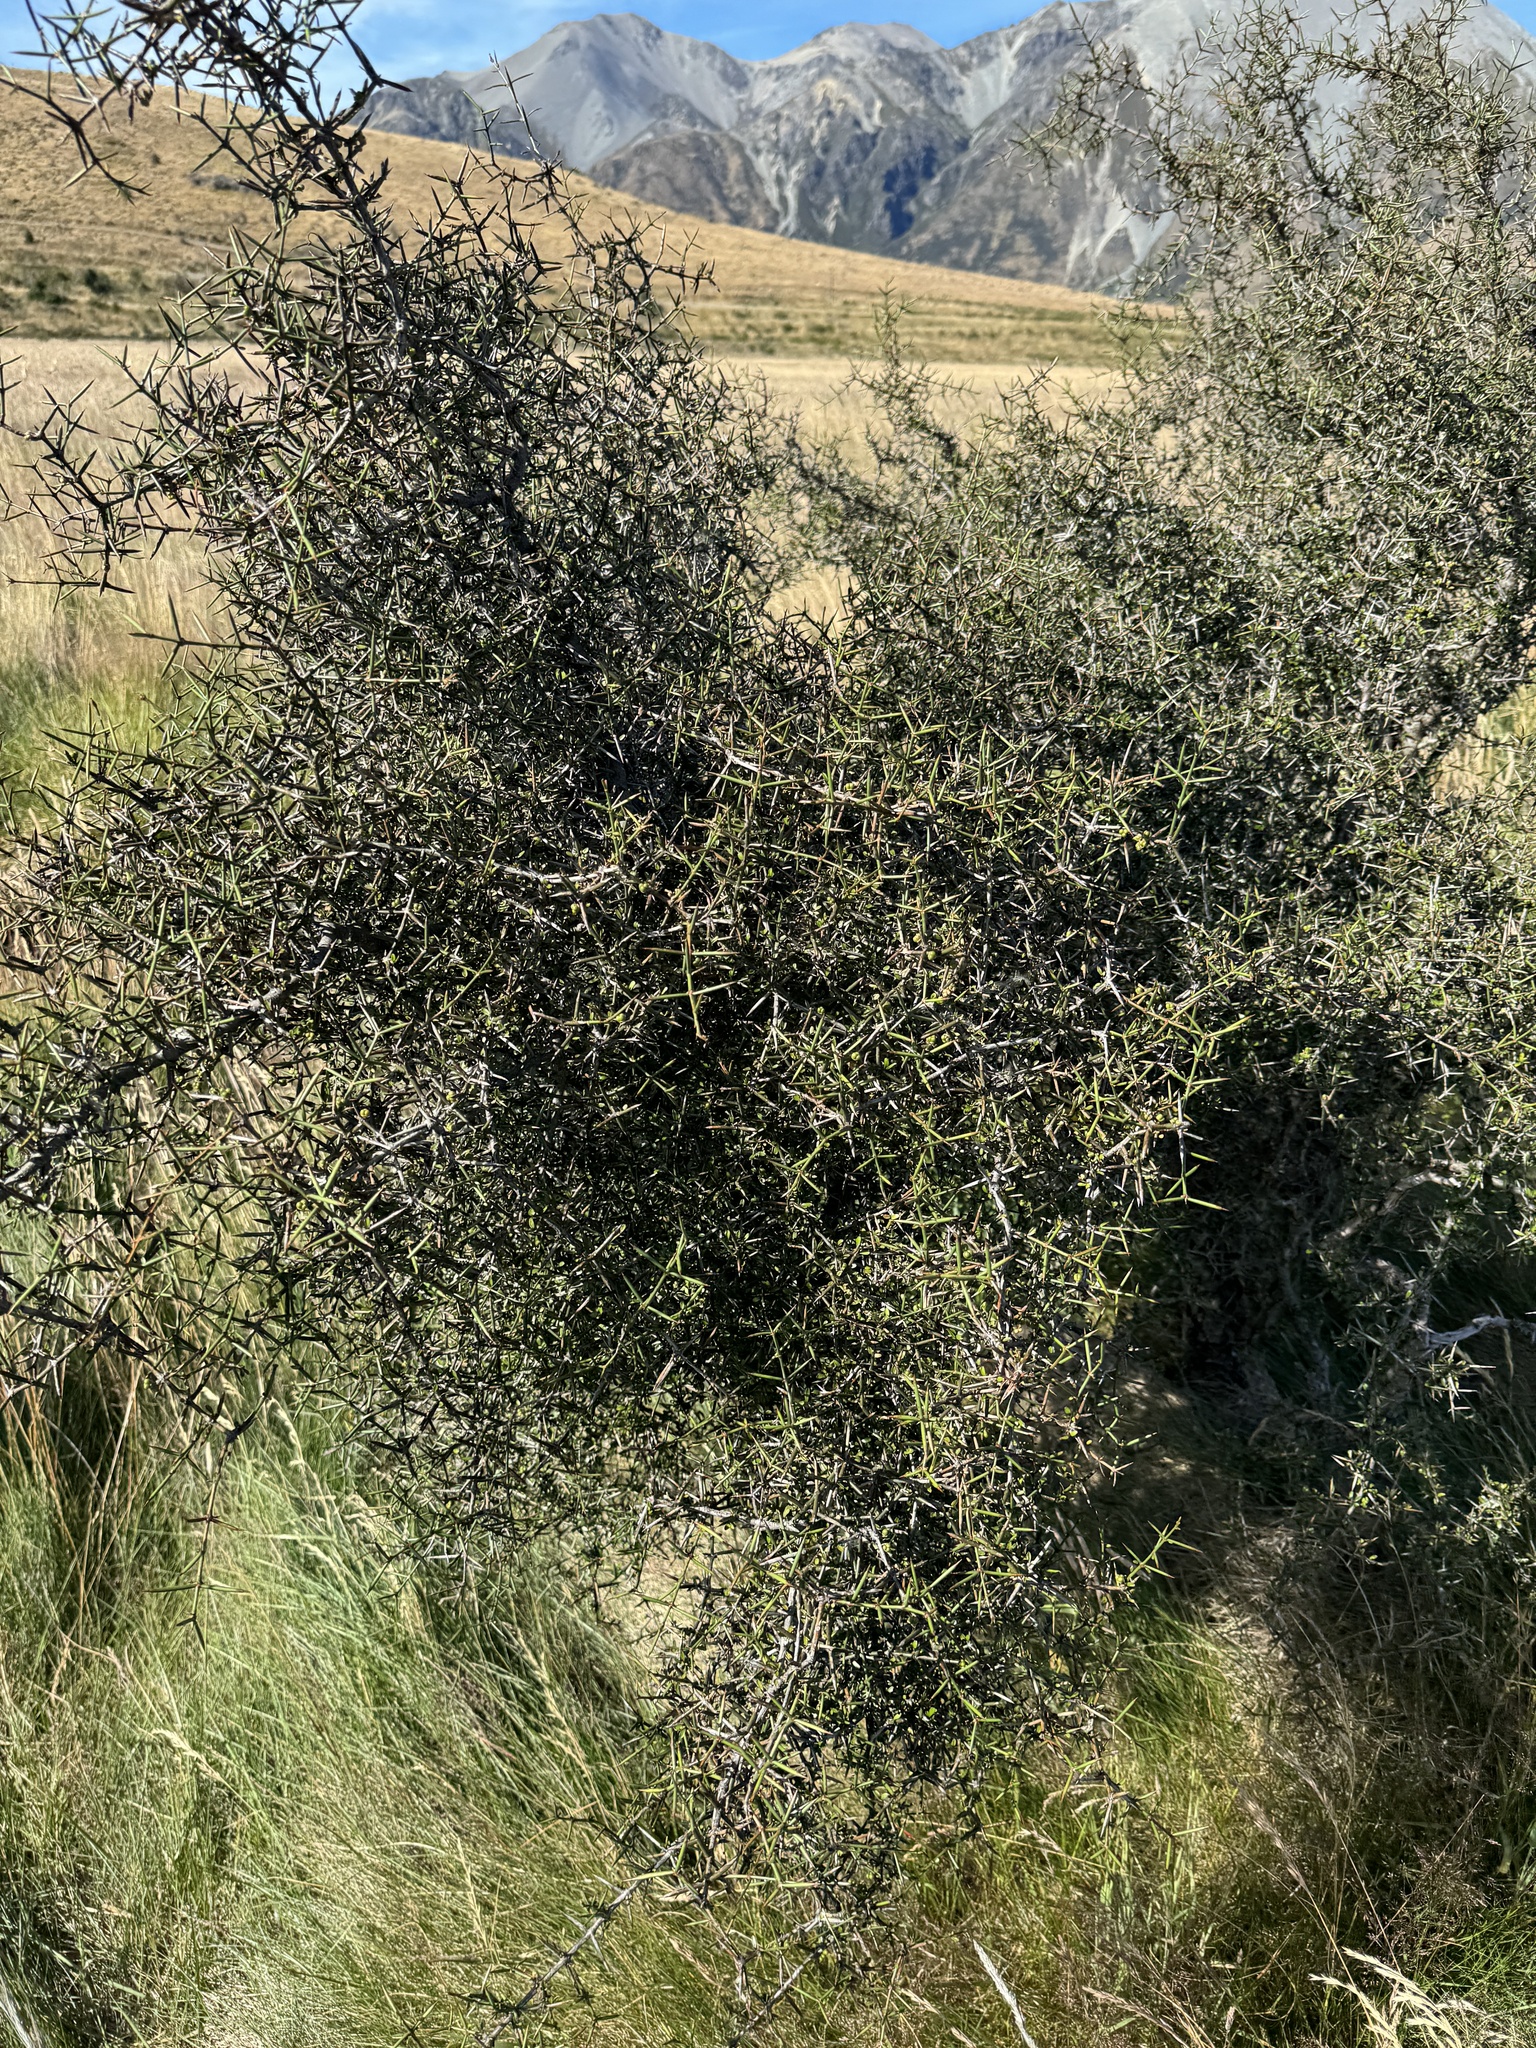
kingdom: Plantae
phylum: Tracheophyta
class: Magnoliopsida
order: Rosales
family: Rhamnaceae
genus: Discaria
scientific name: Discaria toumatou
